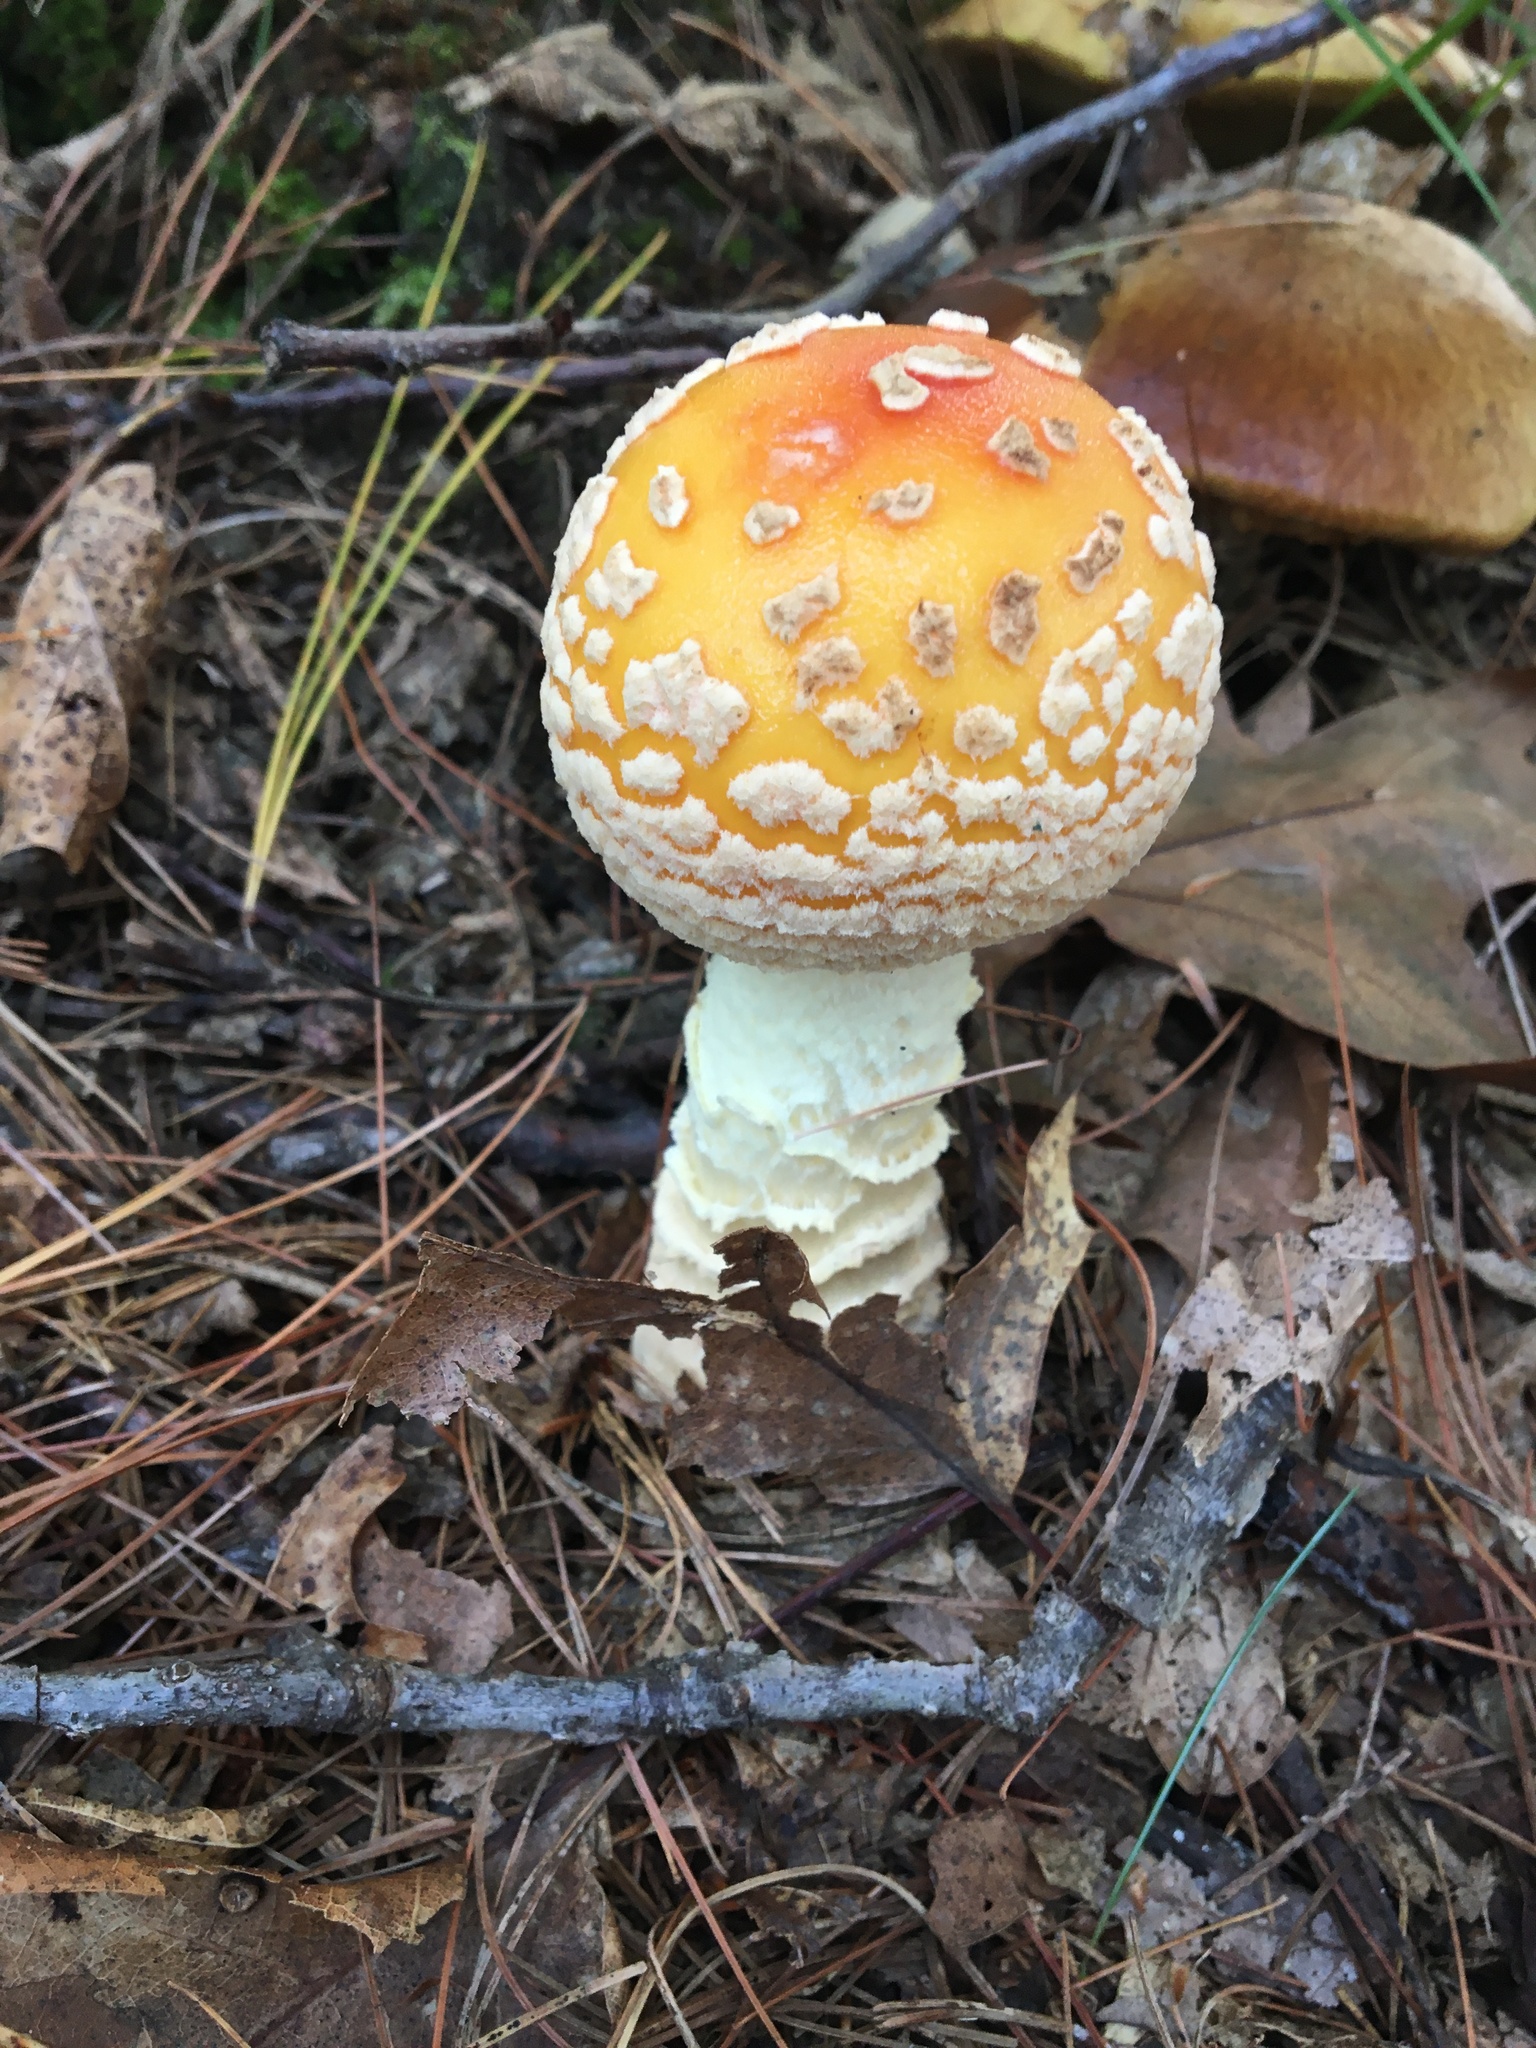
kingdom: Fungi
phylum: Basidiomycota
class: Agaricomycetes
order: Agaricales
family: Amanitaceae
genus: Amanita
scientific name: Amanita muscaria
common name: Fly agaric
